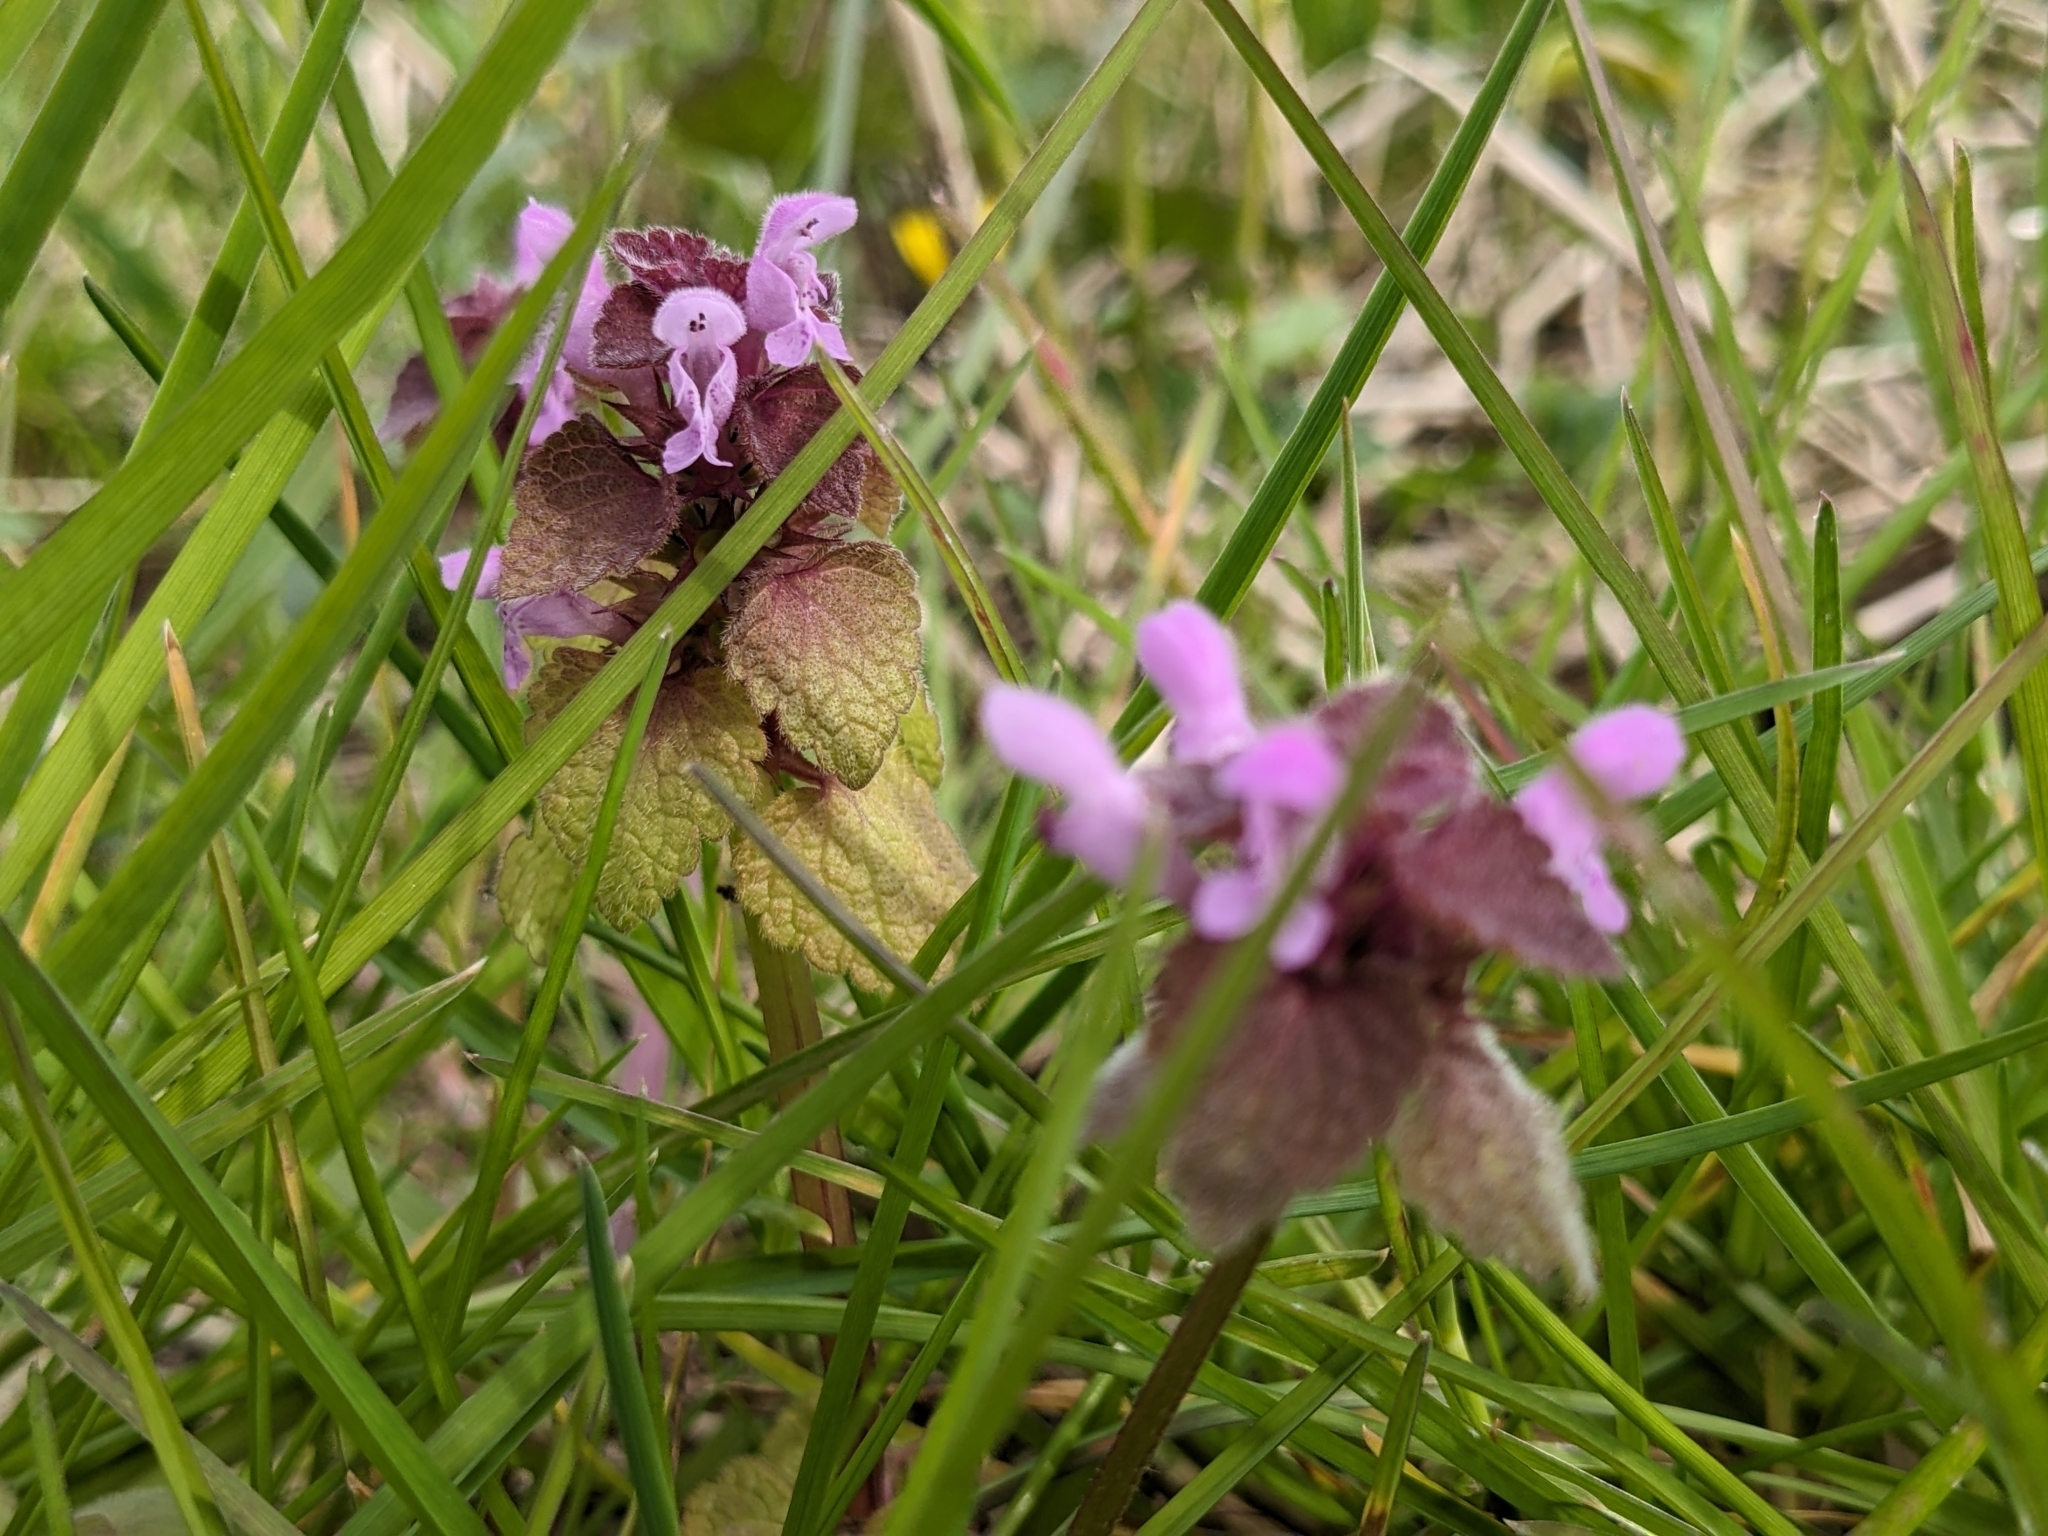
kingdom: Plantae
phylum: Tracheophyta
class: Magnoliopsida
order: Lamiales
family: Lamiaceae
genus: Lamium
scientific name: Lamium purpureum
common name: Red dead-nettle
